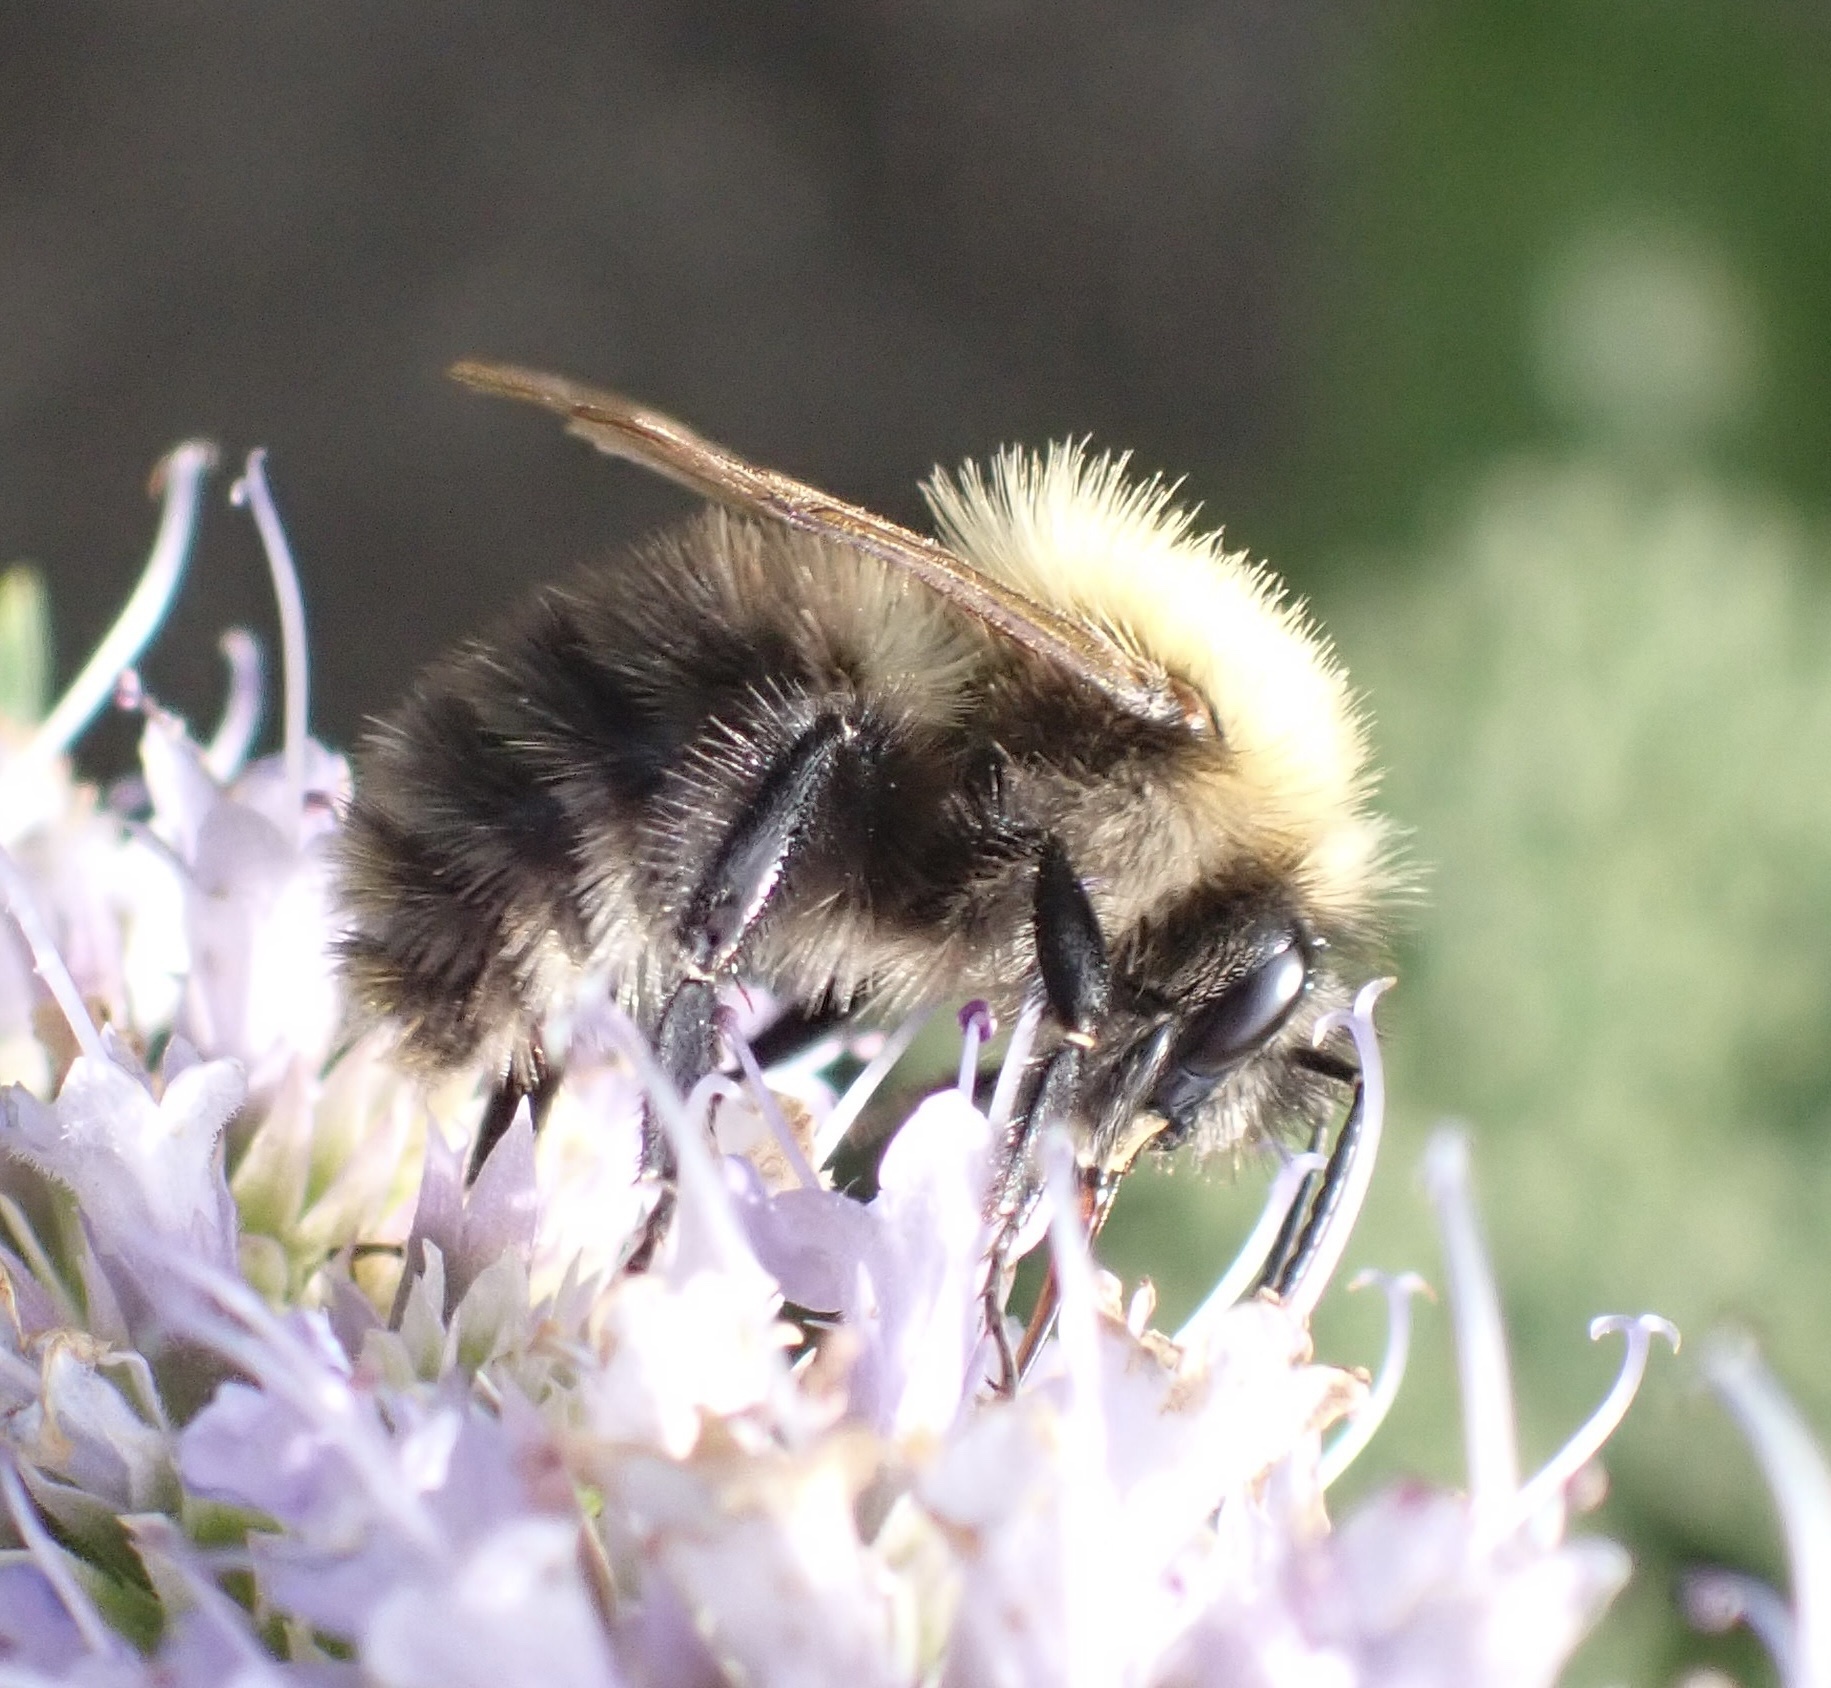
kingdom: Animalia
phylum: Arthropoda
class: Insecta
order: Hymenoptera
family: Apidae
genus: Bombus
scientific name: Bombus pascuorum
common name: Common carder bee
